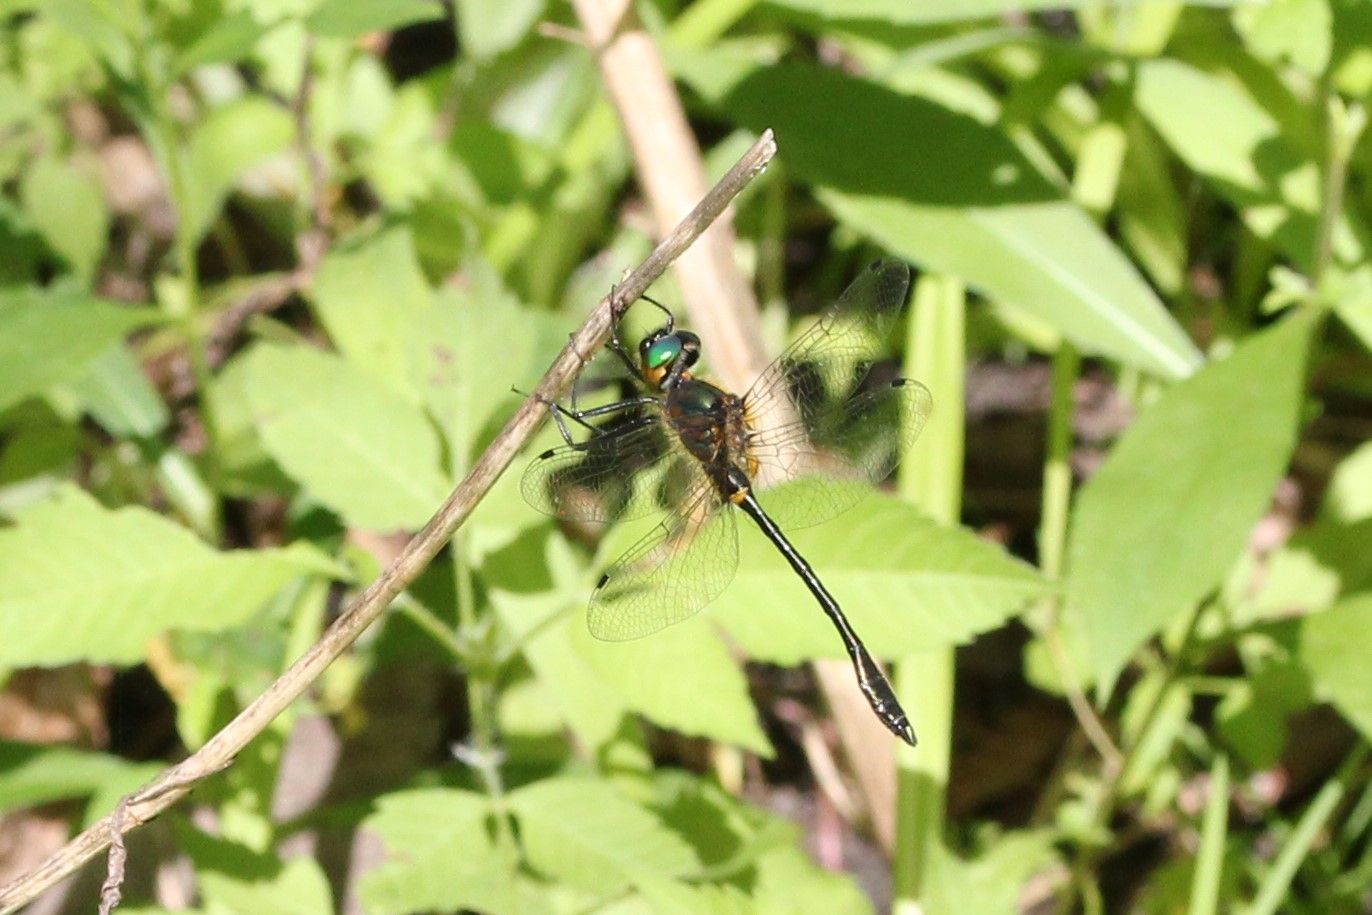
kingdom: Animalia
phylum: Arthropoda
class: Insecta
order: Odonata
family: Corduliidae
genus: Dorocordulia
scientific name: Dorocordulia libera
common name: Racket-tailed emerald
